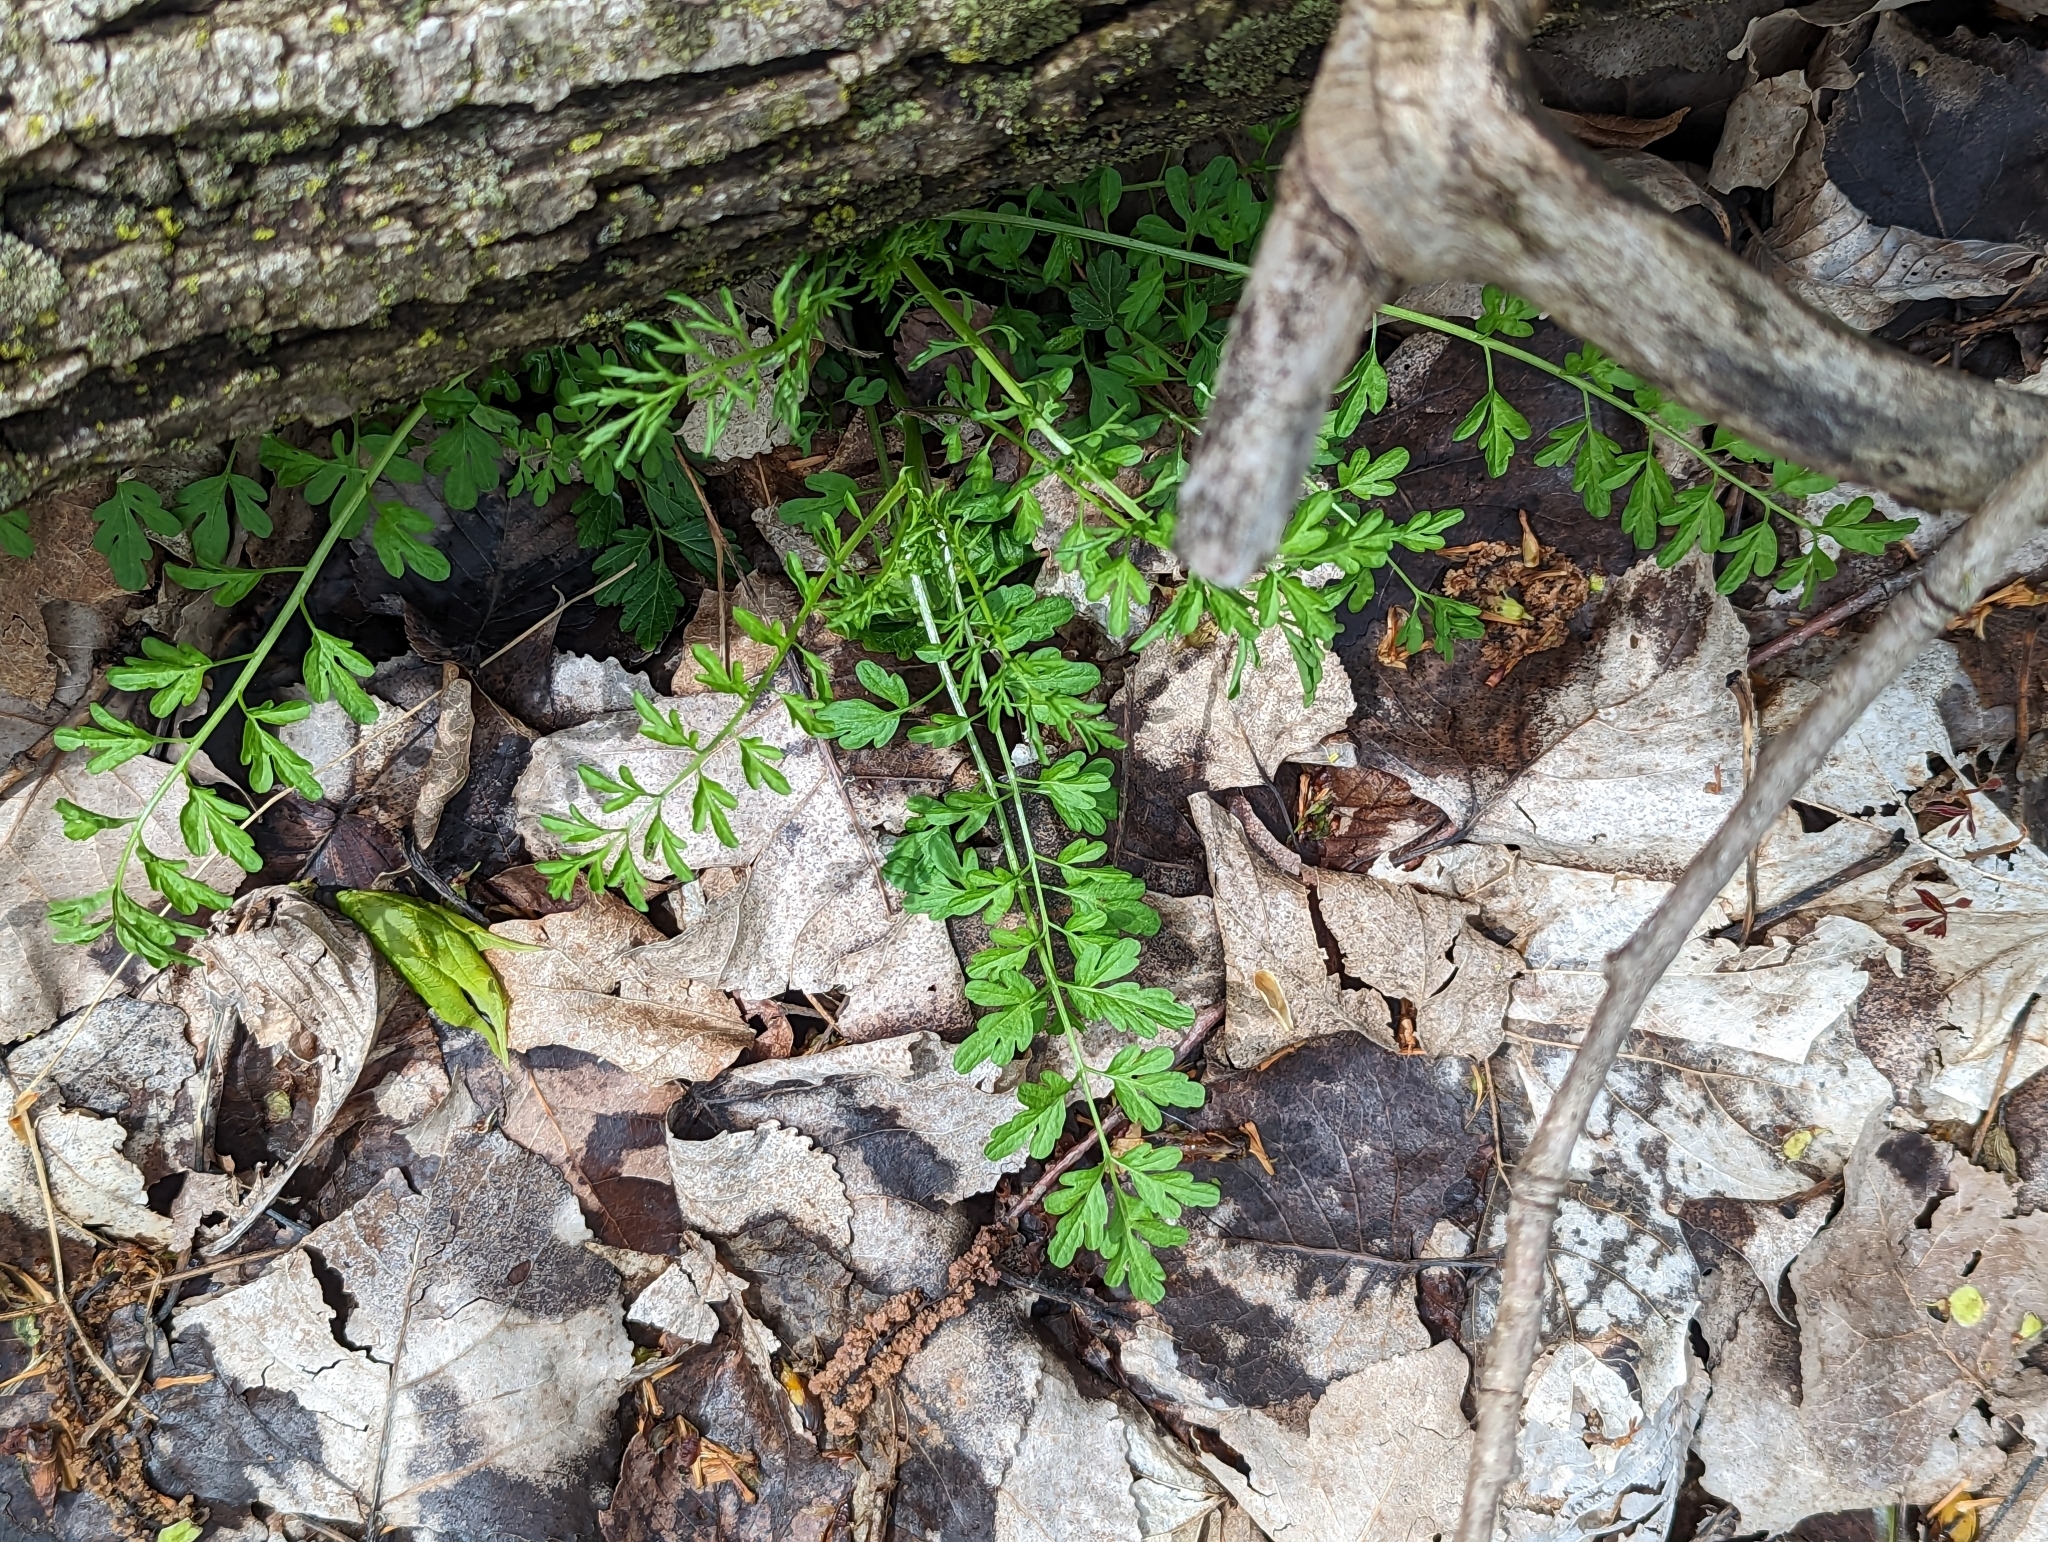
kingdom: Plantae
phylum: Tracheophyta
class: Magnoliopsida
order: Brassicales
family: Brassicaceae
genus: Cardamine
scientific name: Cardamine impatiens
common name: Narrow-leaved bitter-cress
